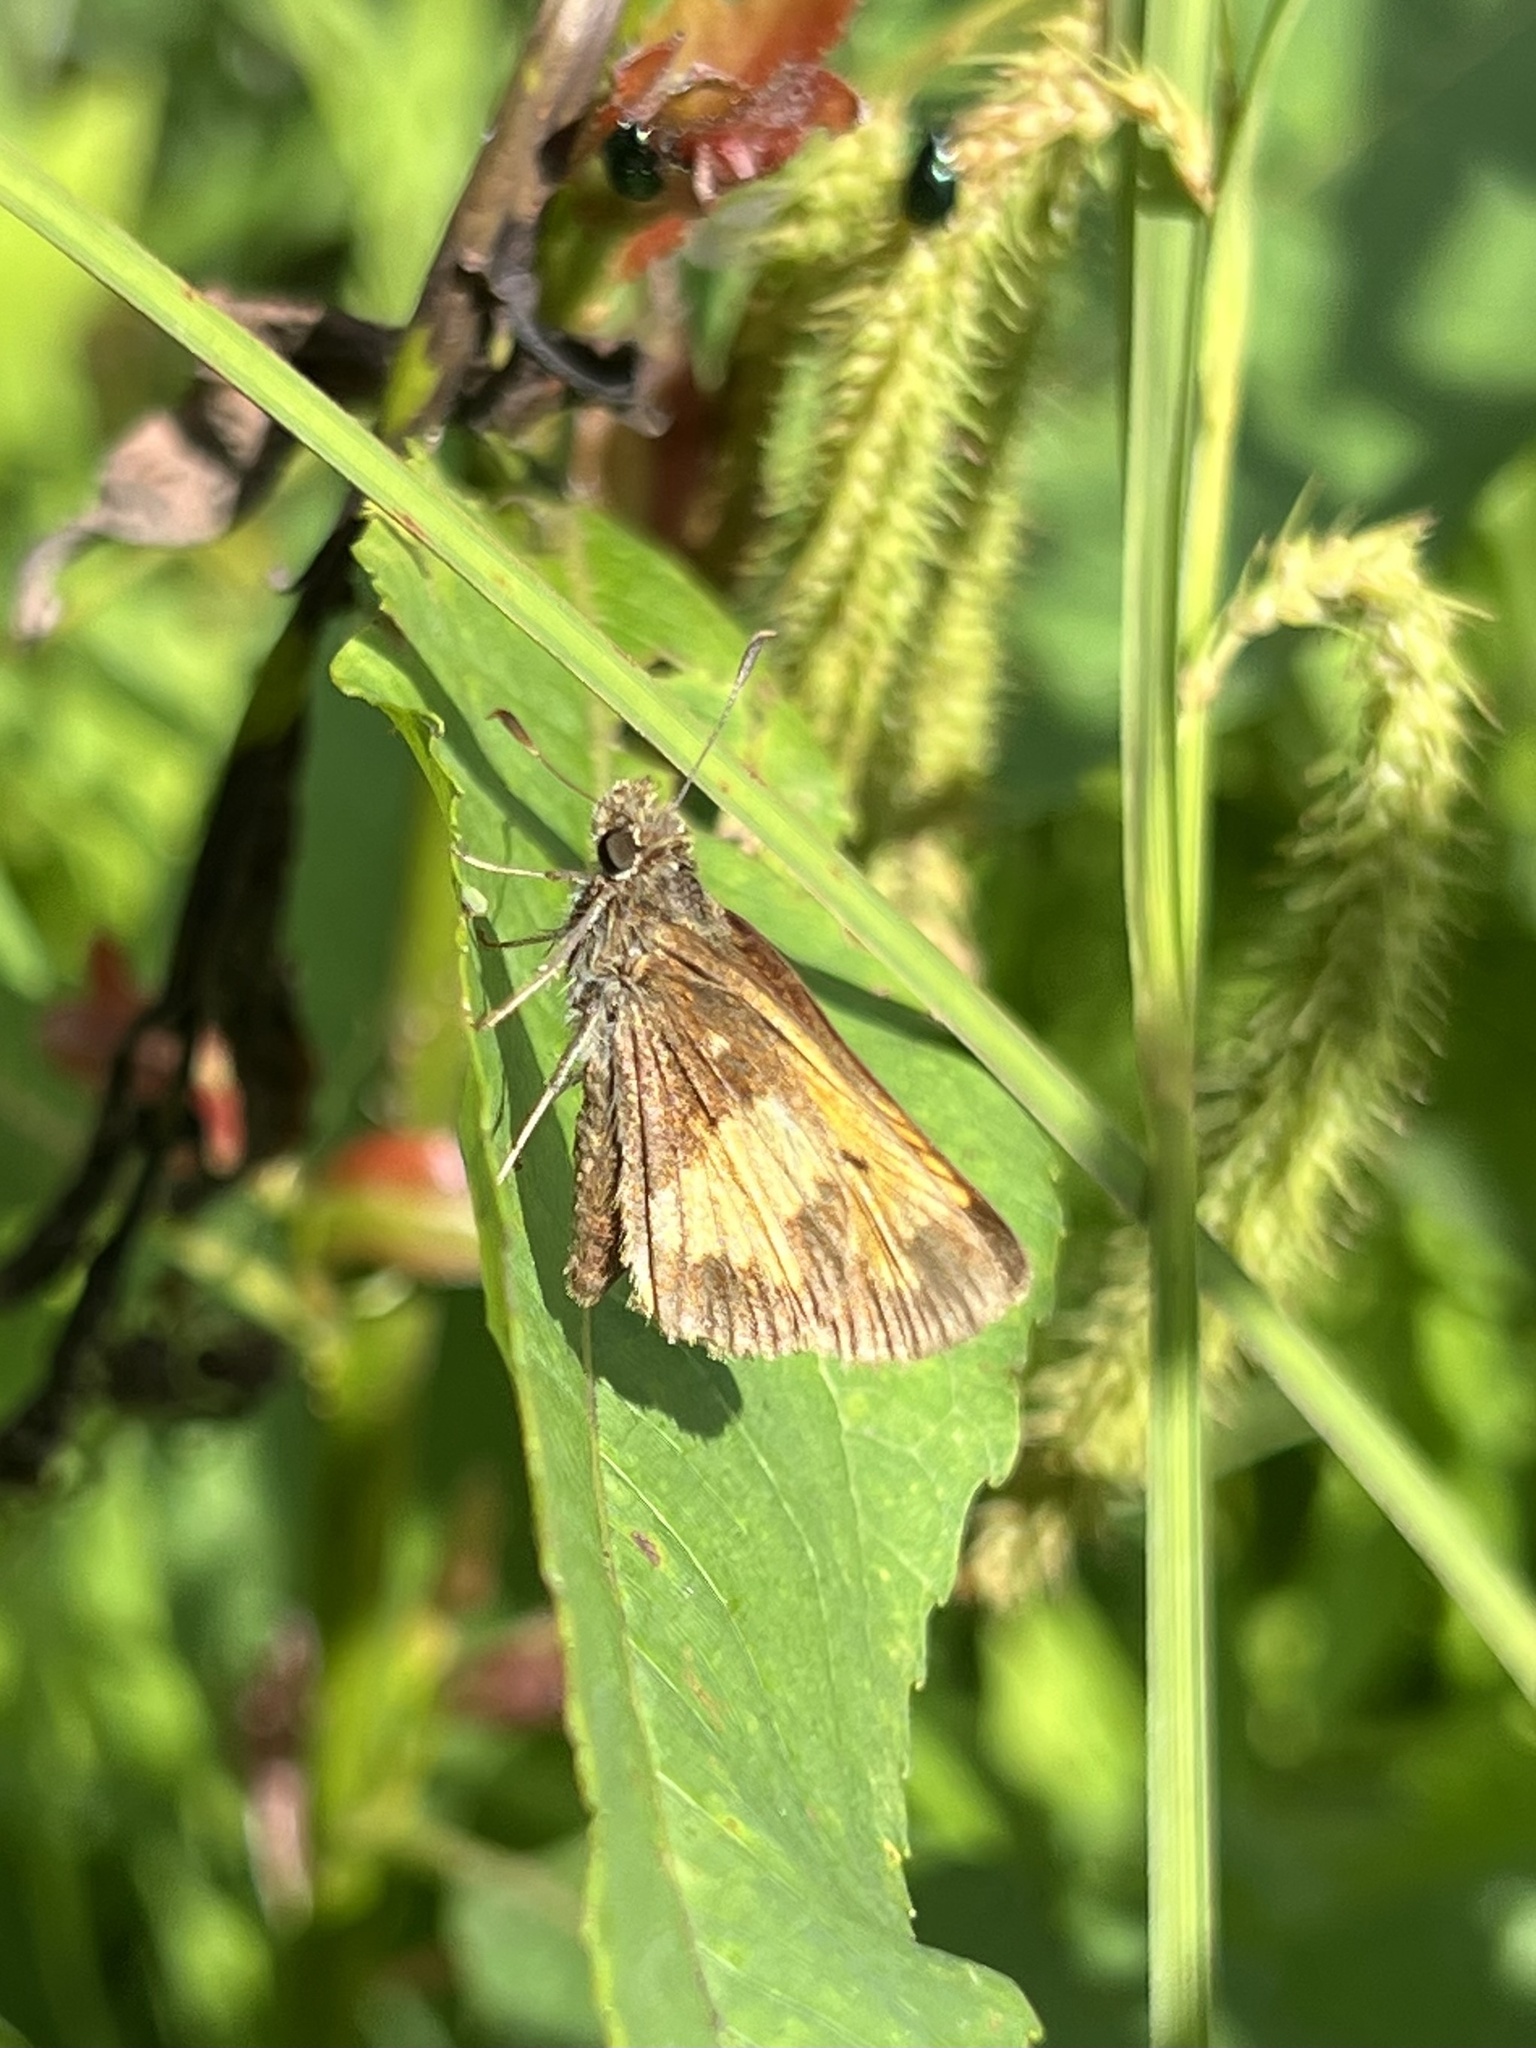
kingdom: Animalia
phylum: Arthropoda
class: Insecta
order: Lepidoptera
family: Hesperiidae
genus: Lon
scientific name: Lon hobomok
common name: Hobomok skipper
